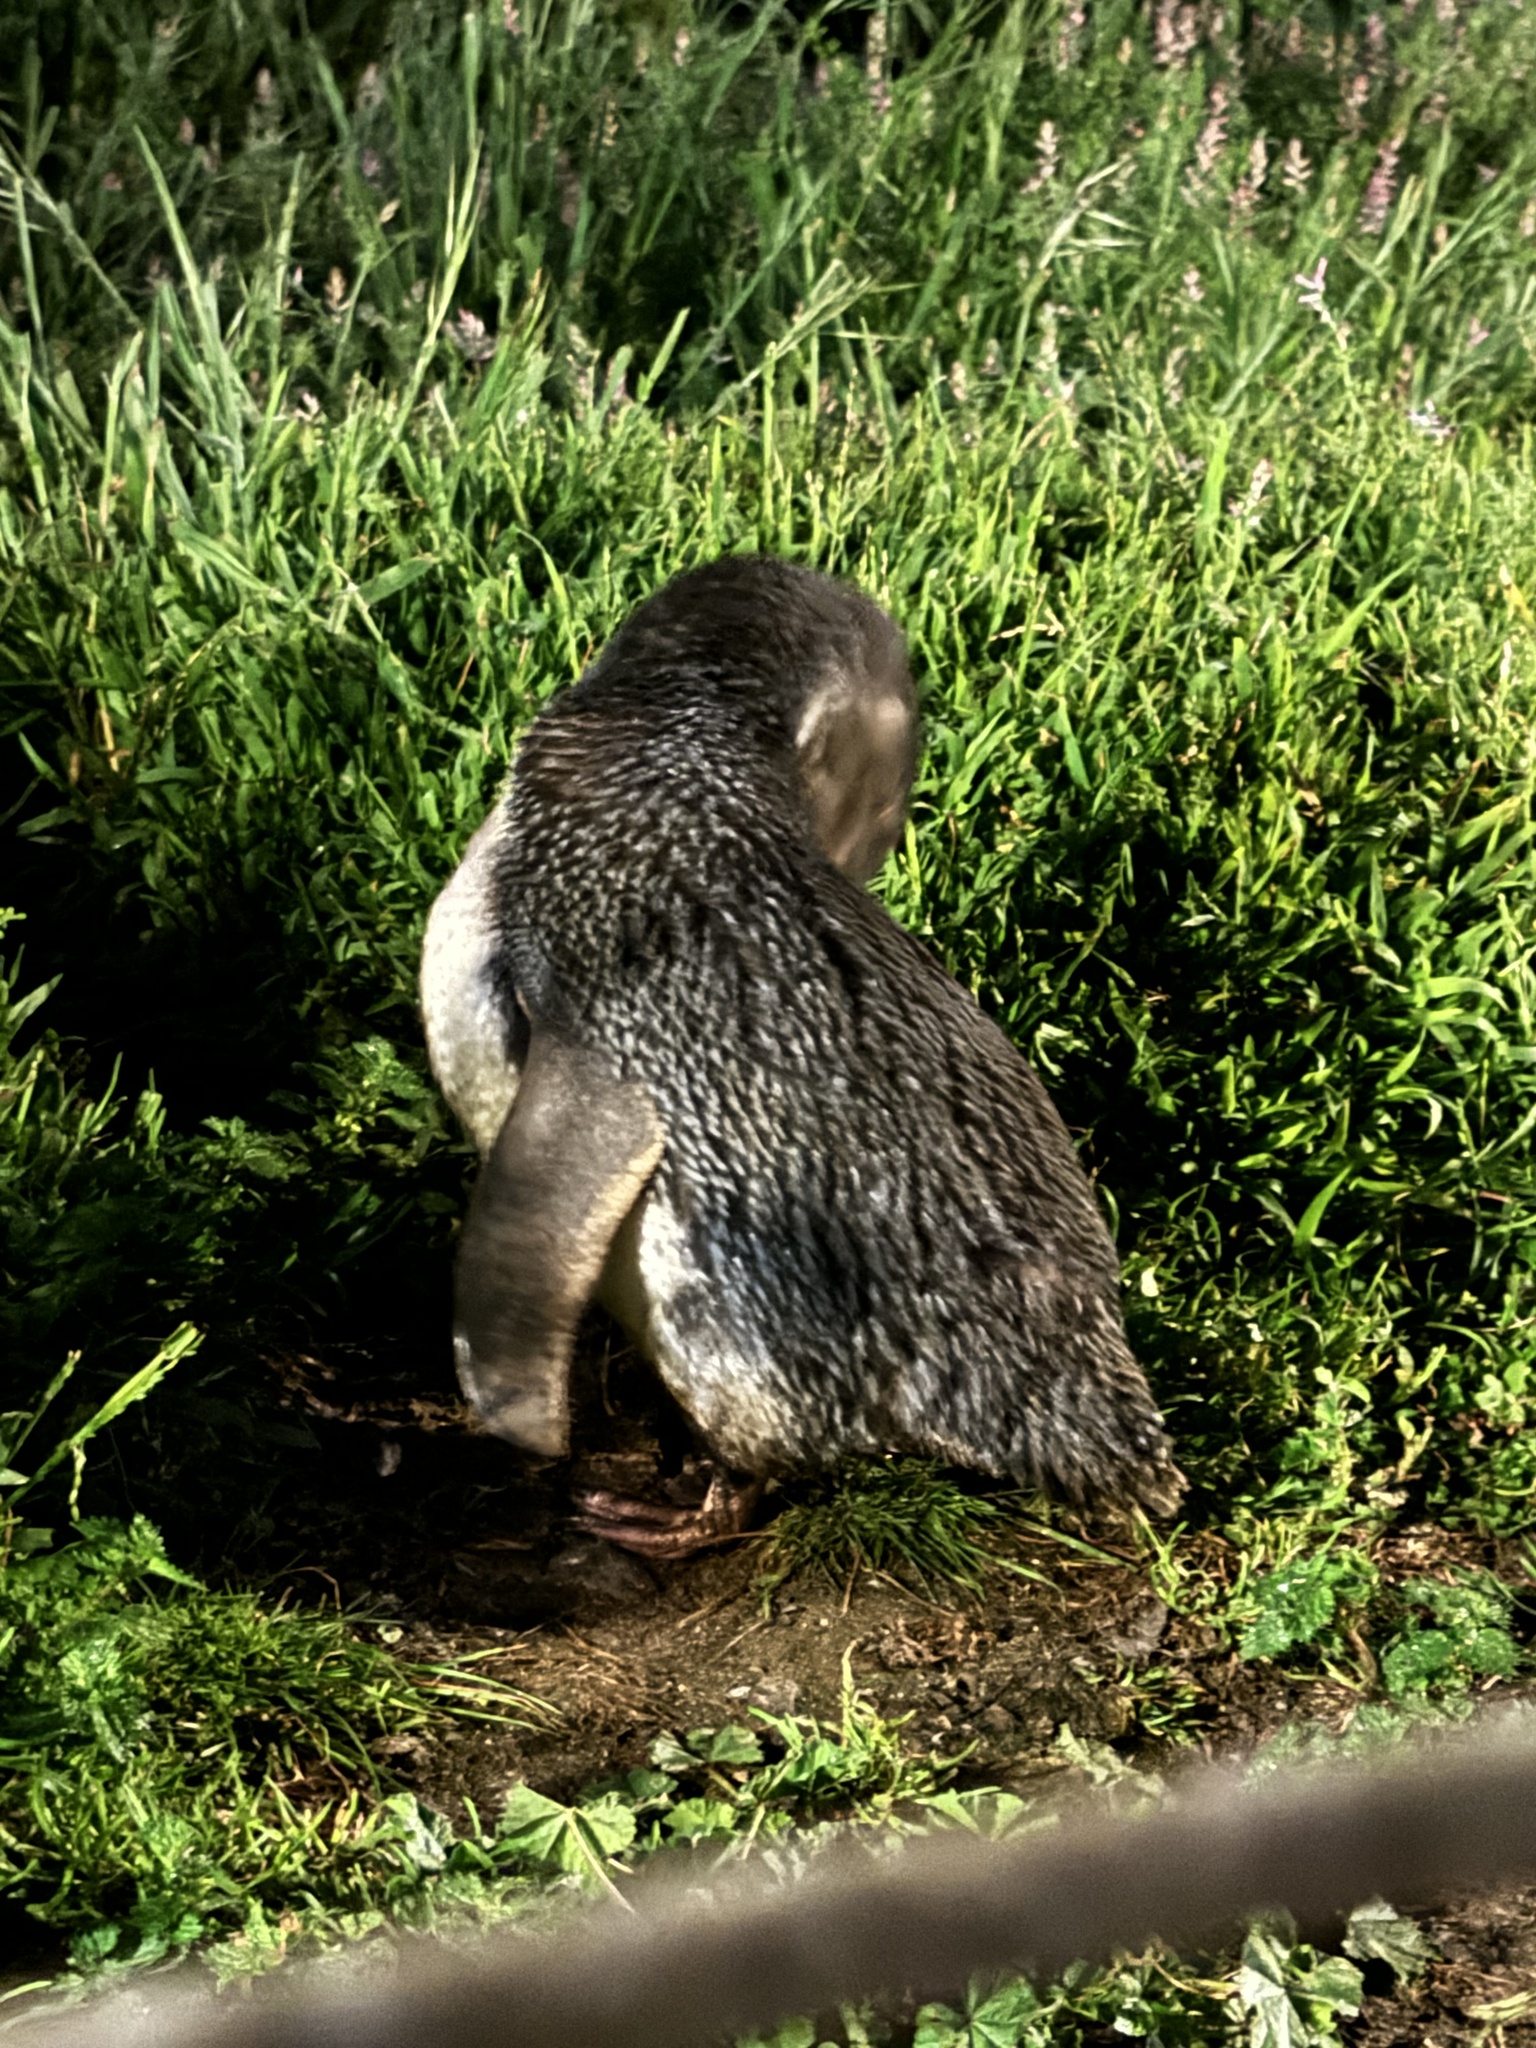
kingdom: Animalia
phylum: Chordata
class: Aves
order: Sphenisciformes
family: Spheniscidae
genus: Eudyptula
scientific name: Eudyptula minor
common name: Little penguin
